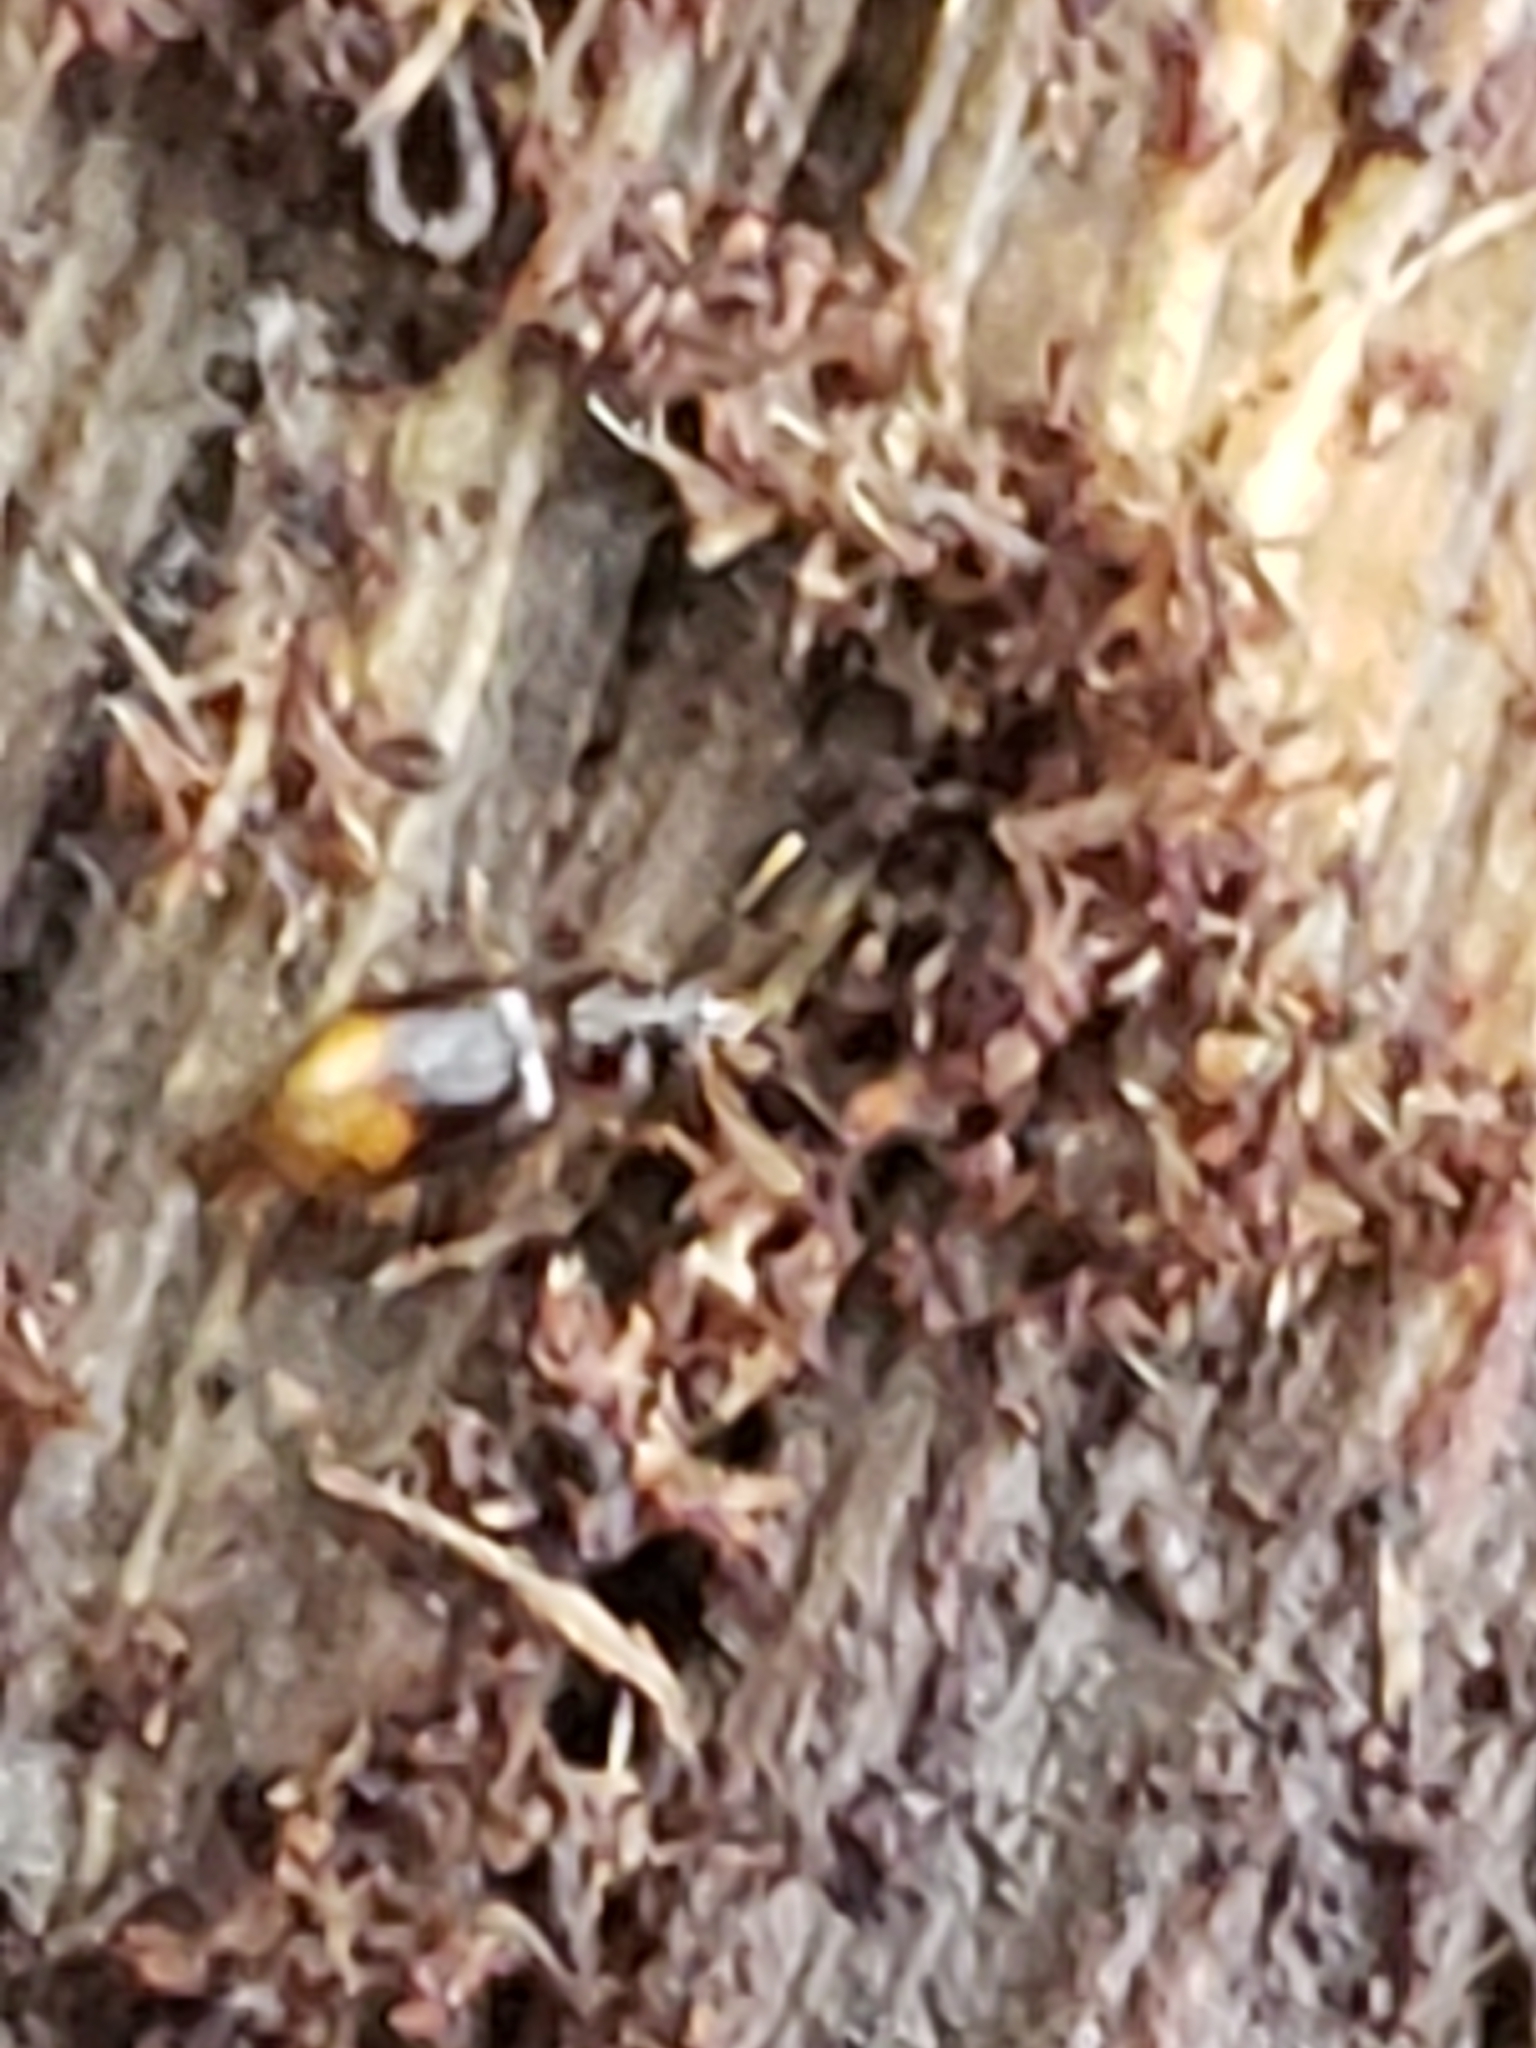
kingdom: Animalia
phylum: Arthropoda
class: Insecta
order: Coleoptera
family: Carabidae
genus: Mioptachys
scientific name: Mioptachys flavicauda
